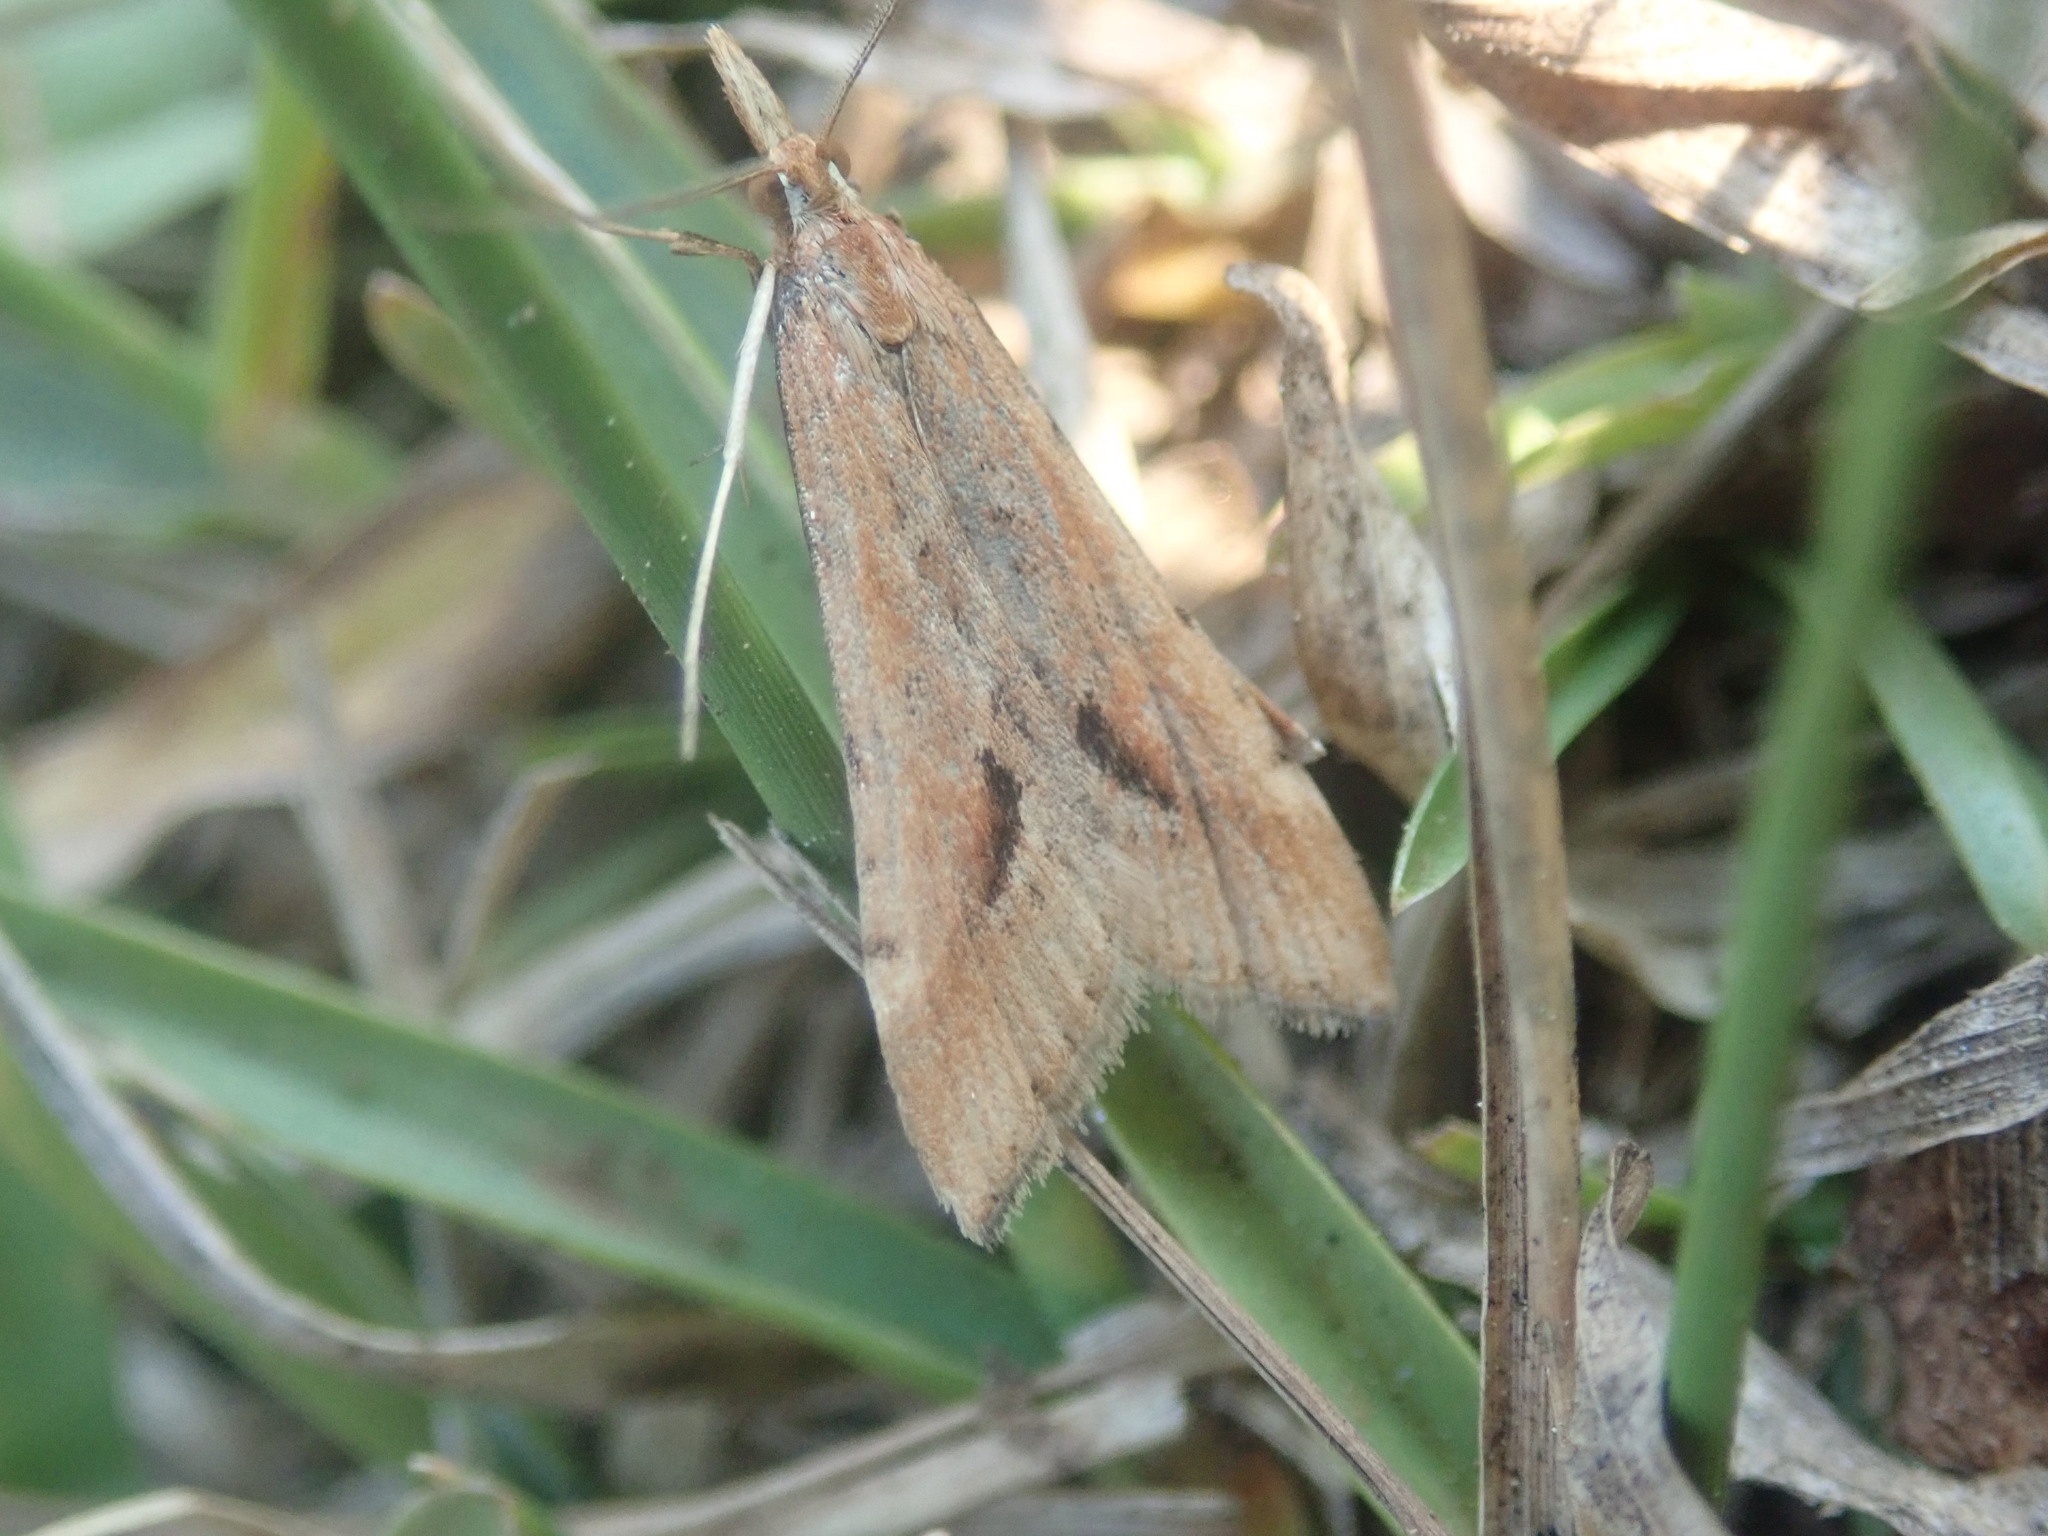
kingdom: Animalia
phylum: Arthropoda
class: Insecta
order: Lepidoptera
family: Crambidae
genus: Diasemia
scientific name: Diasemia monostigma
